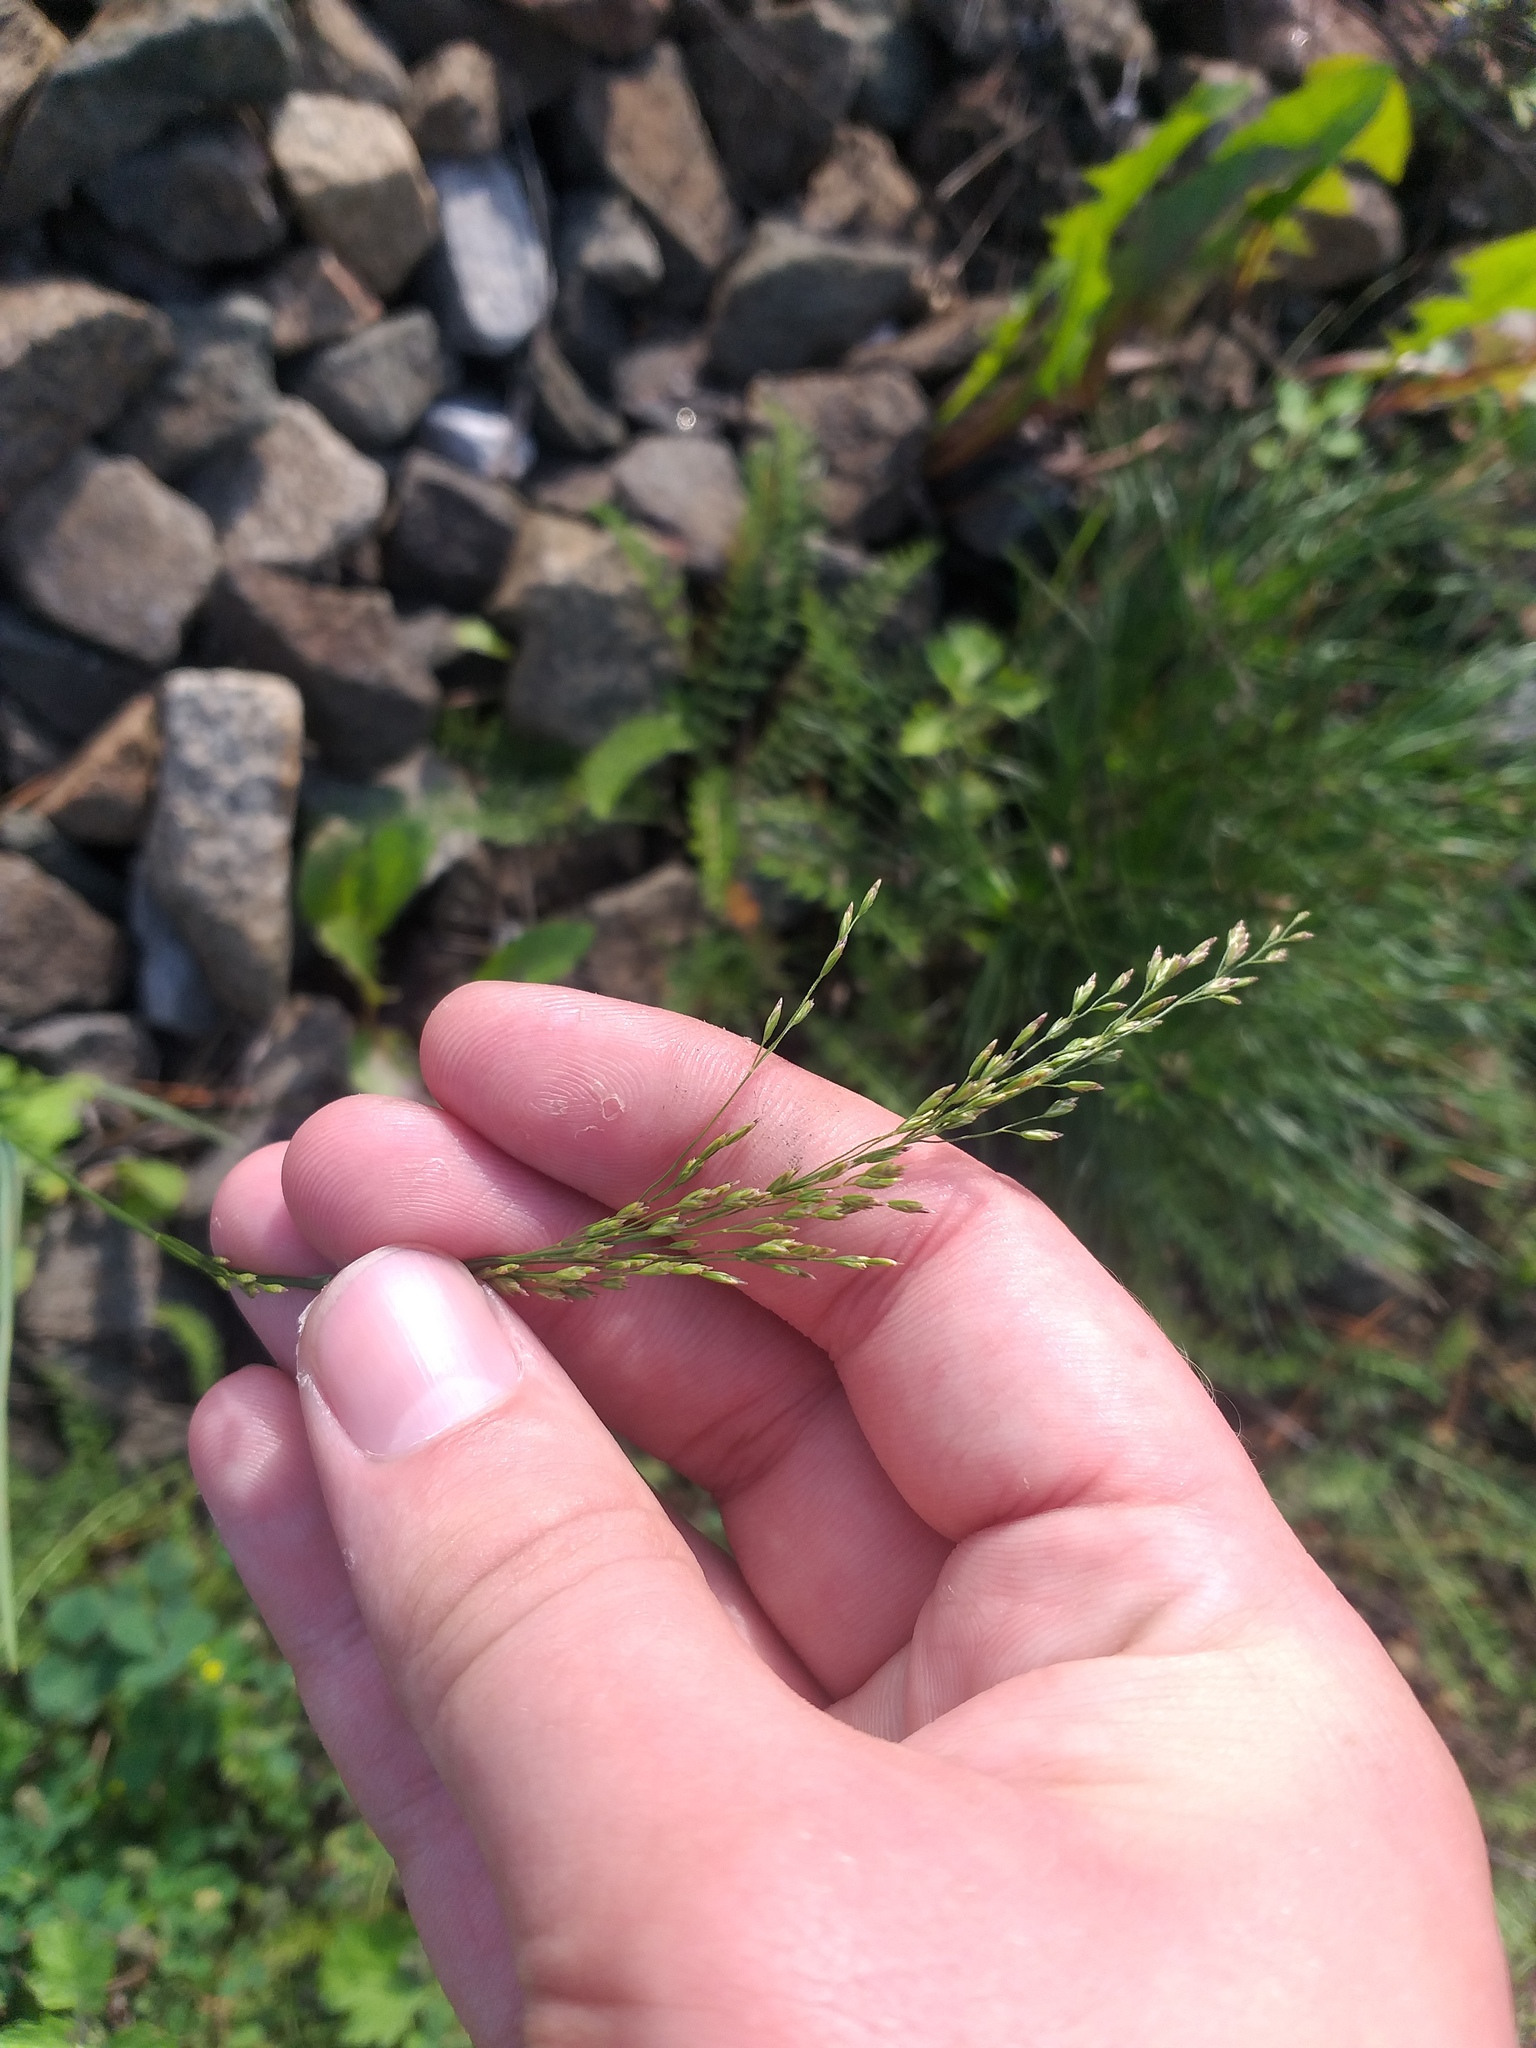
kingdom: Plantae
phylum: Tracheophyta
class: Liliopsida
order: Poales
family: Poaceae
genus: Poa
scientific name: Poa palustris
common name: Swamp meadow-grass
